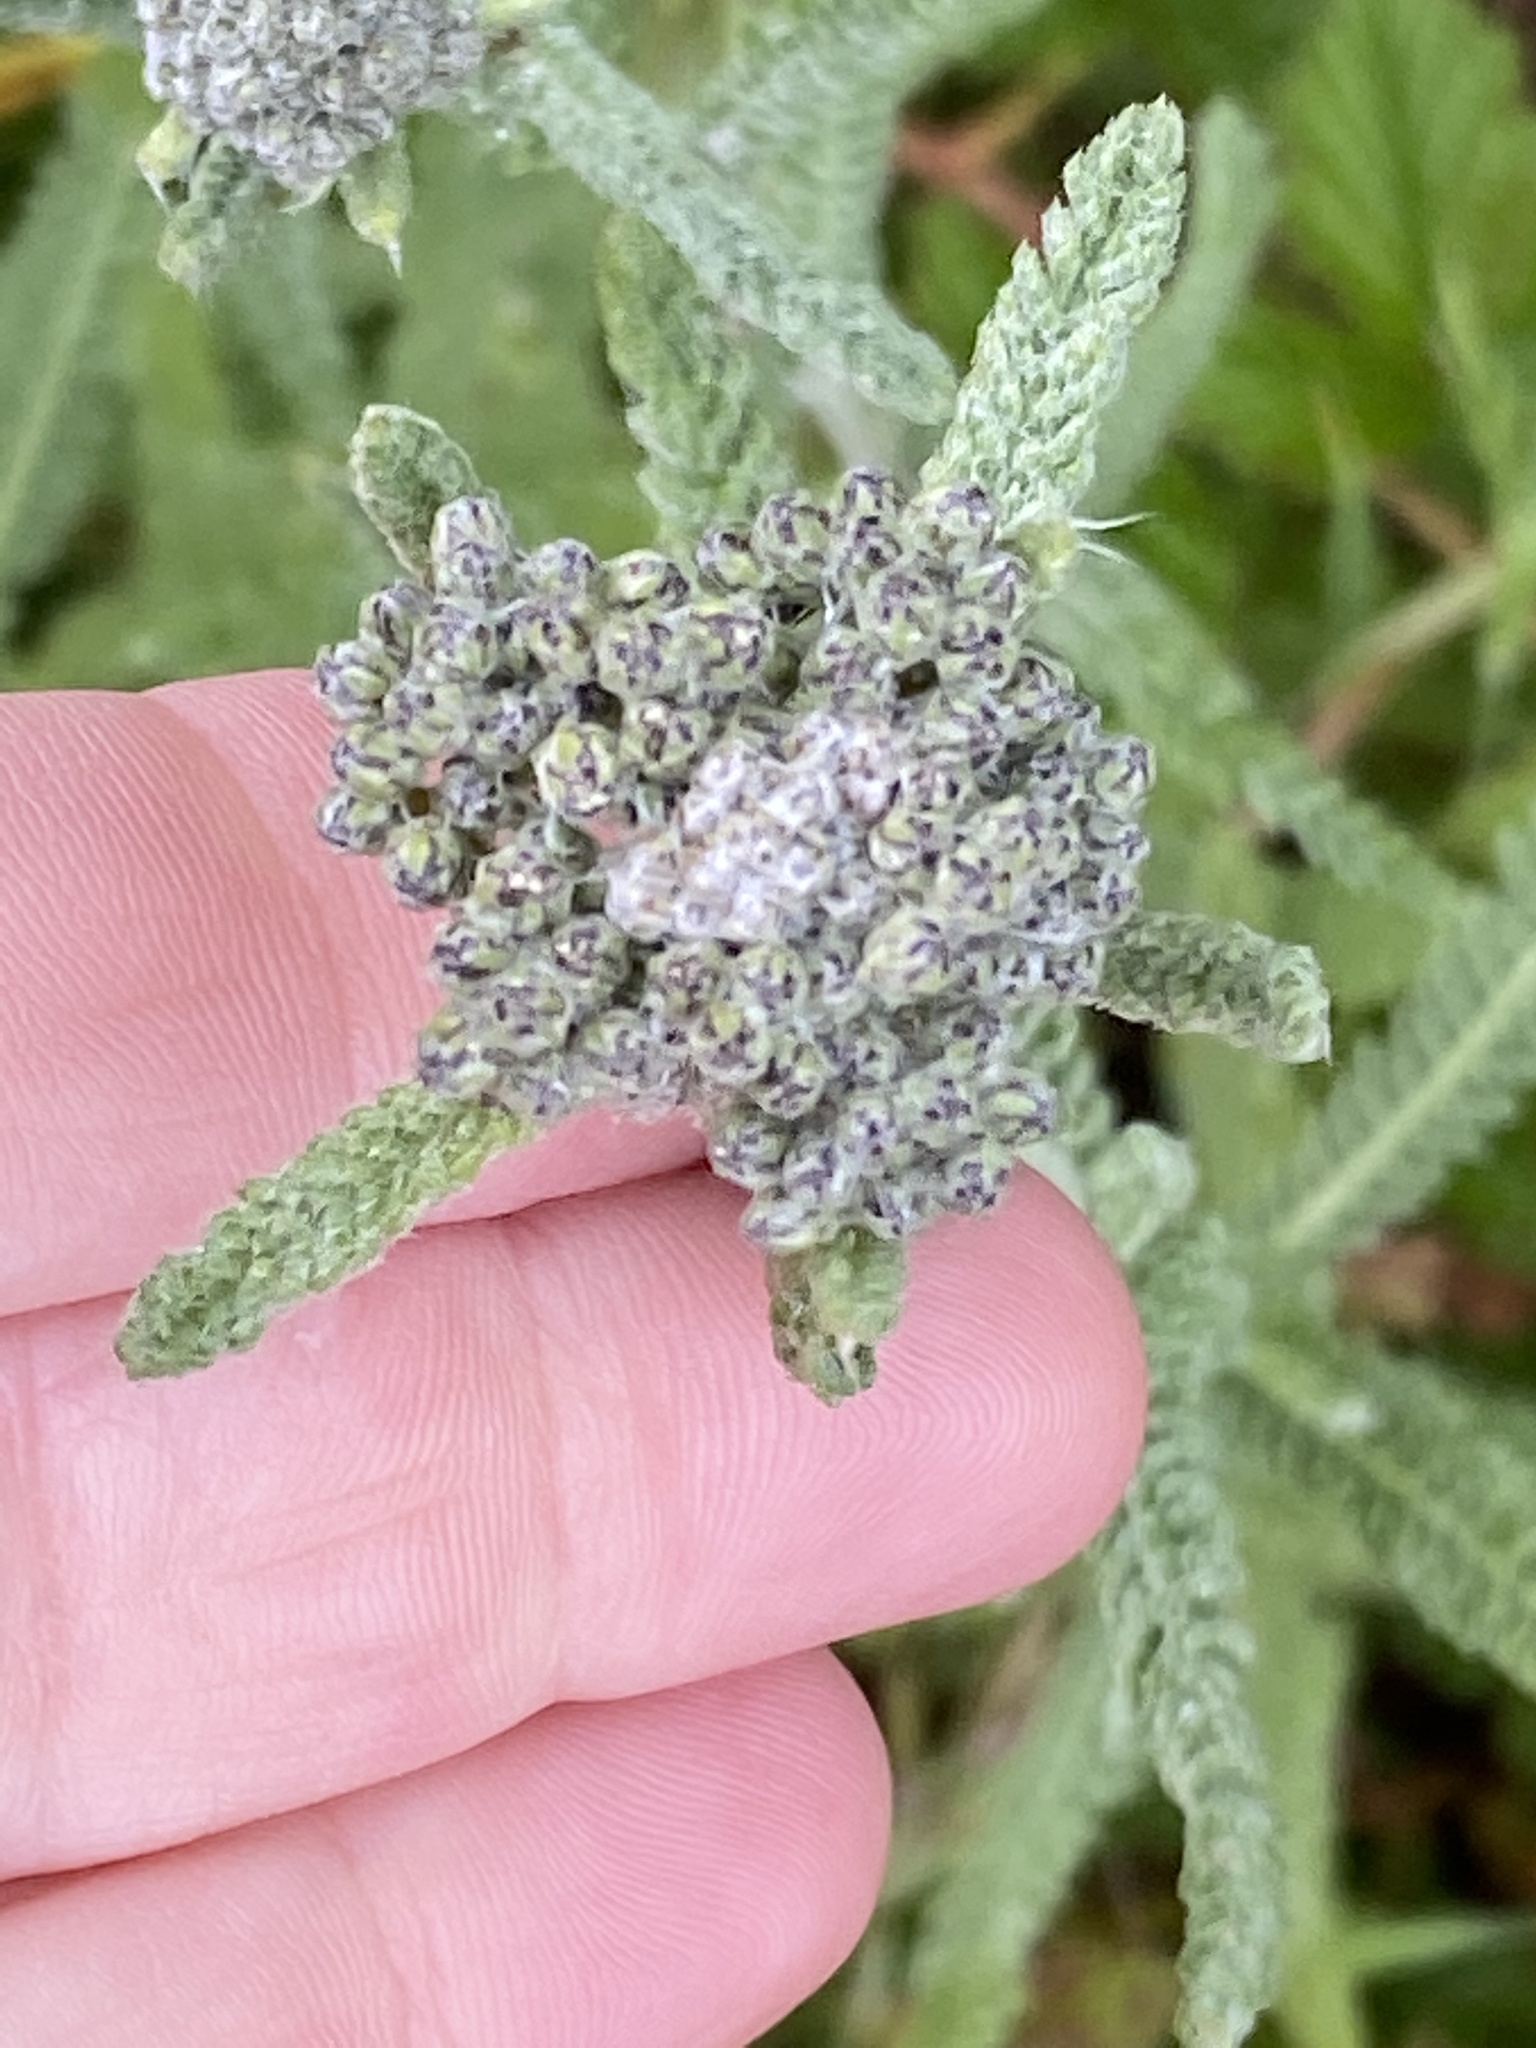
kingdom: Plantae
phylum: Tracheophyta
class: Magnoliopsida
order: Asterales
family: Asteraceae
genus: Achillea
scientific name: Achillea millefolium
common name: Yarrow
